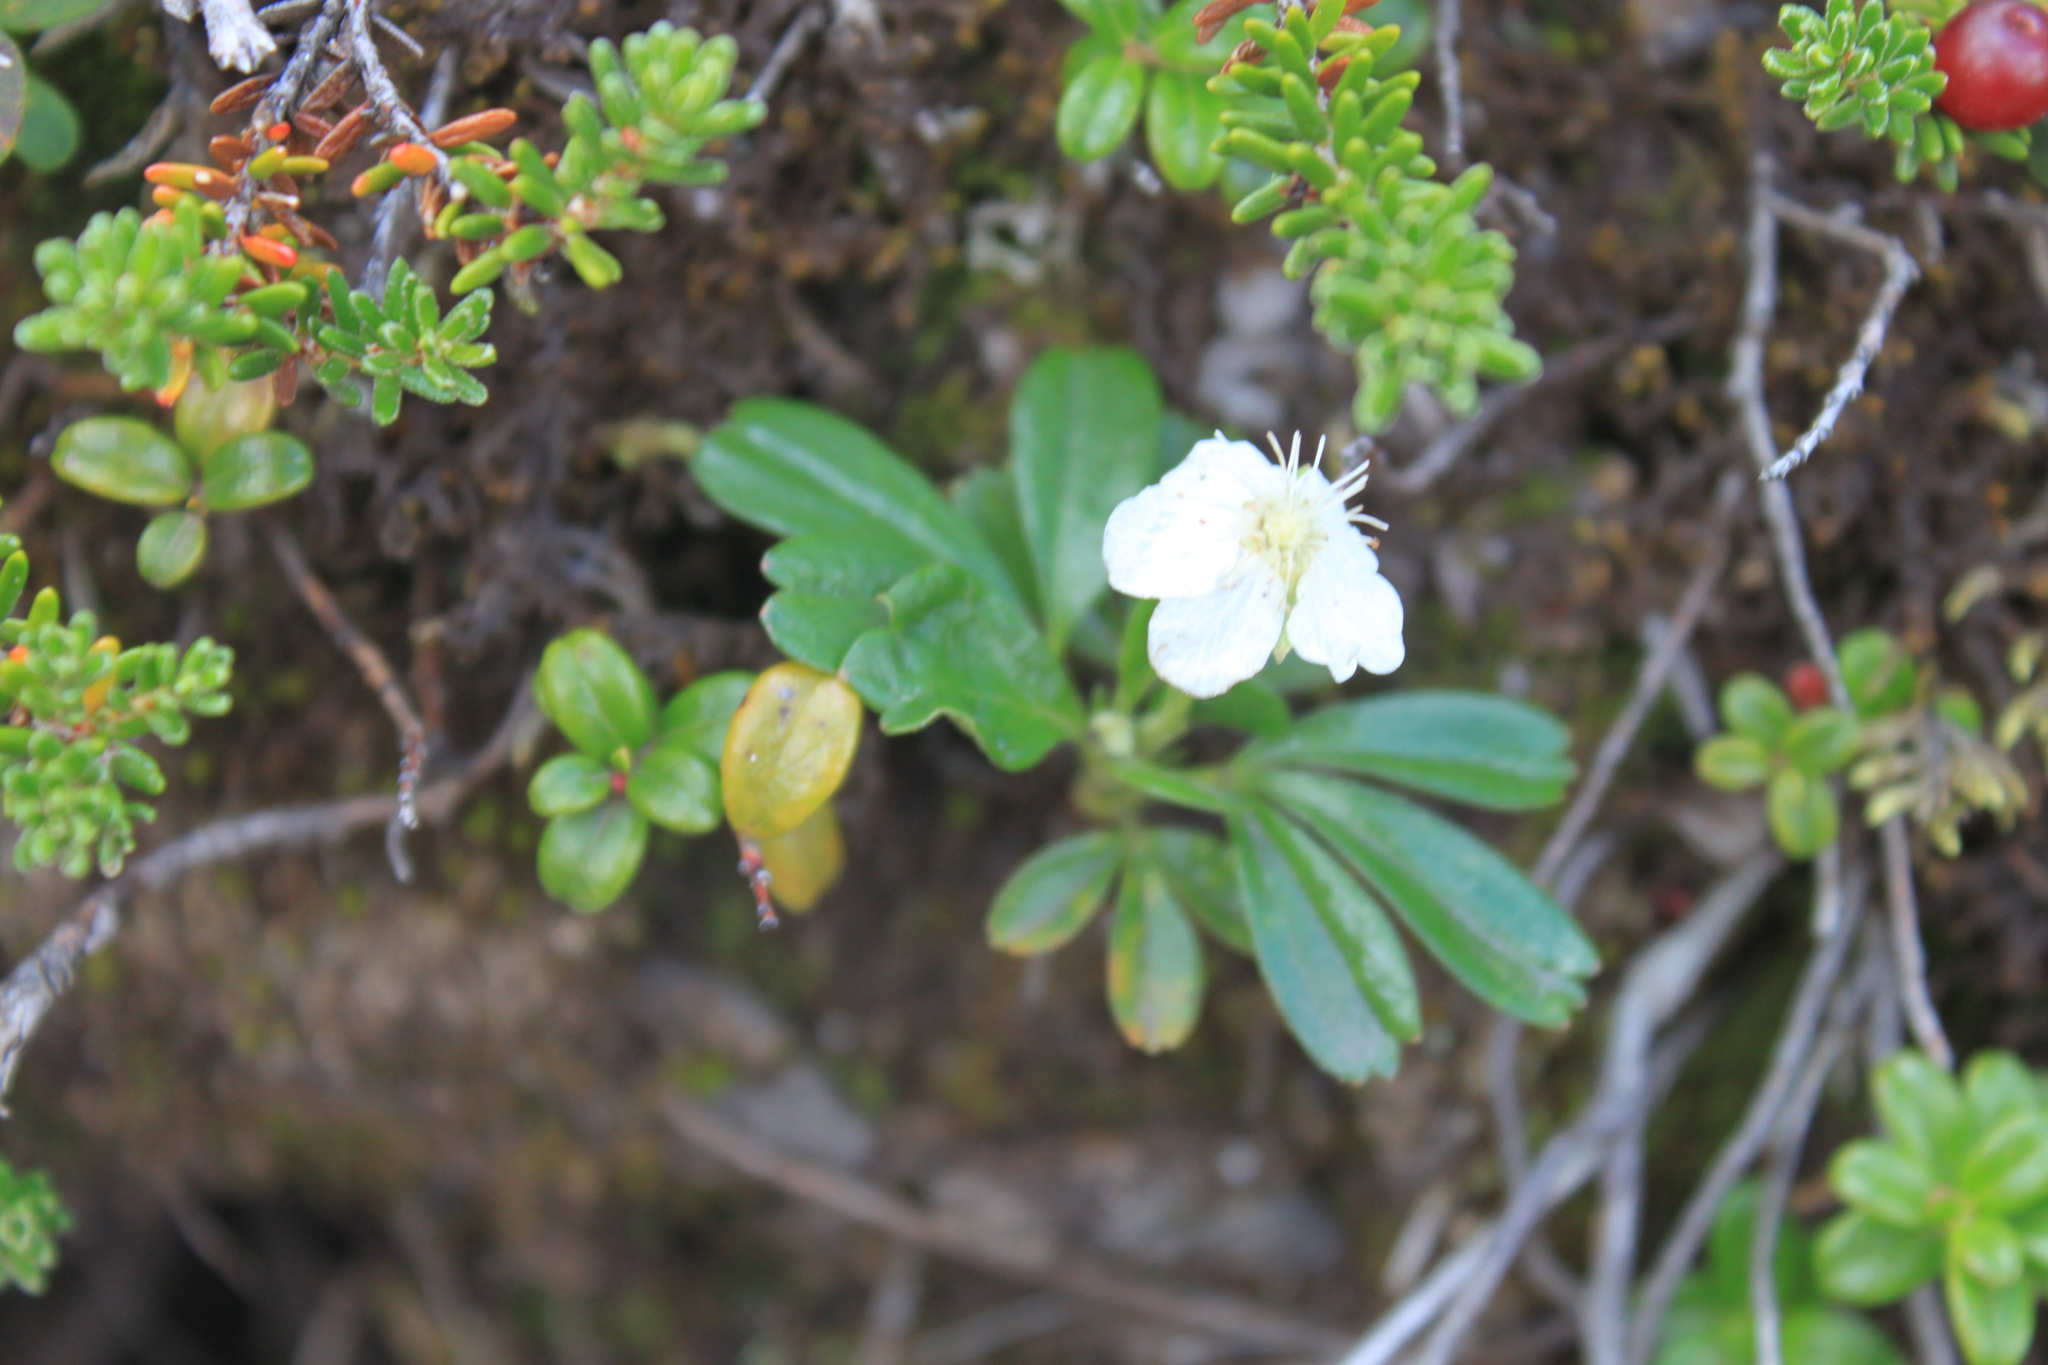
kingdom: Plantae
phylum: Tracheophyta
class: Magnoliopsida
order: Rosales
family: Rosaceae
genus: Sibbaldia
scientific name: Sibbaldia tridentata
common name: Three-toothed cinquefoil
